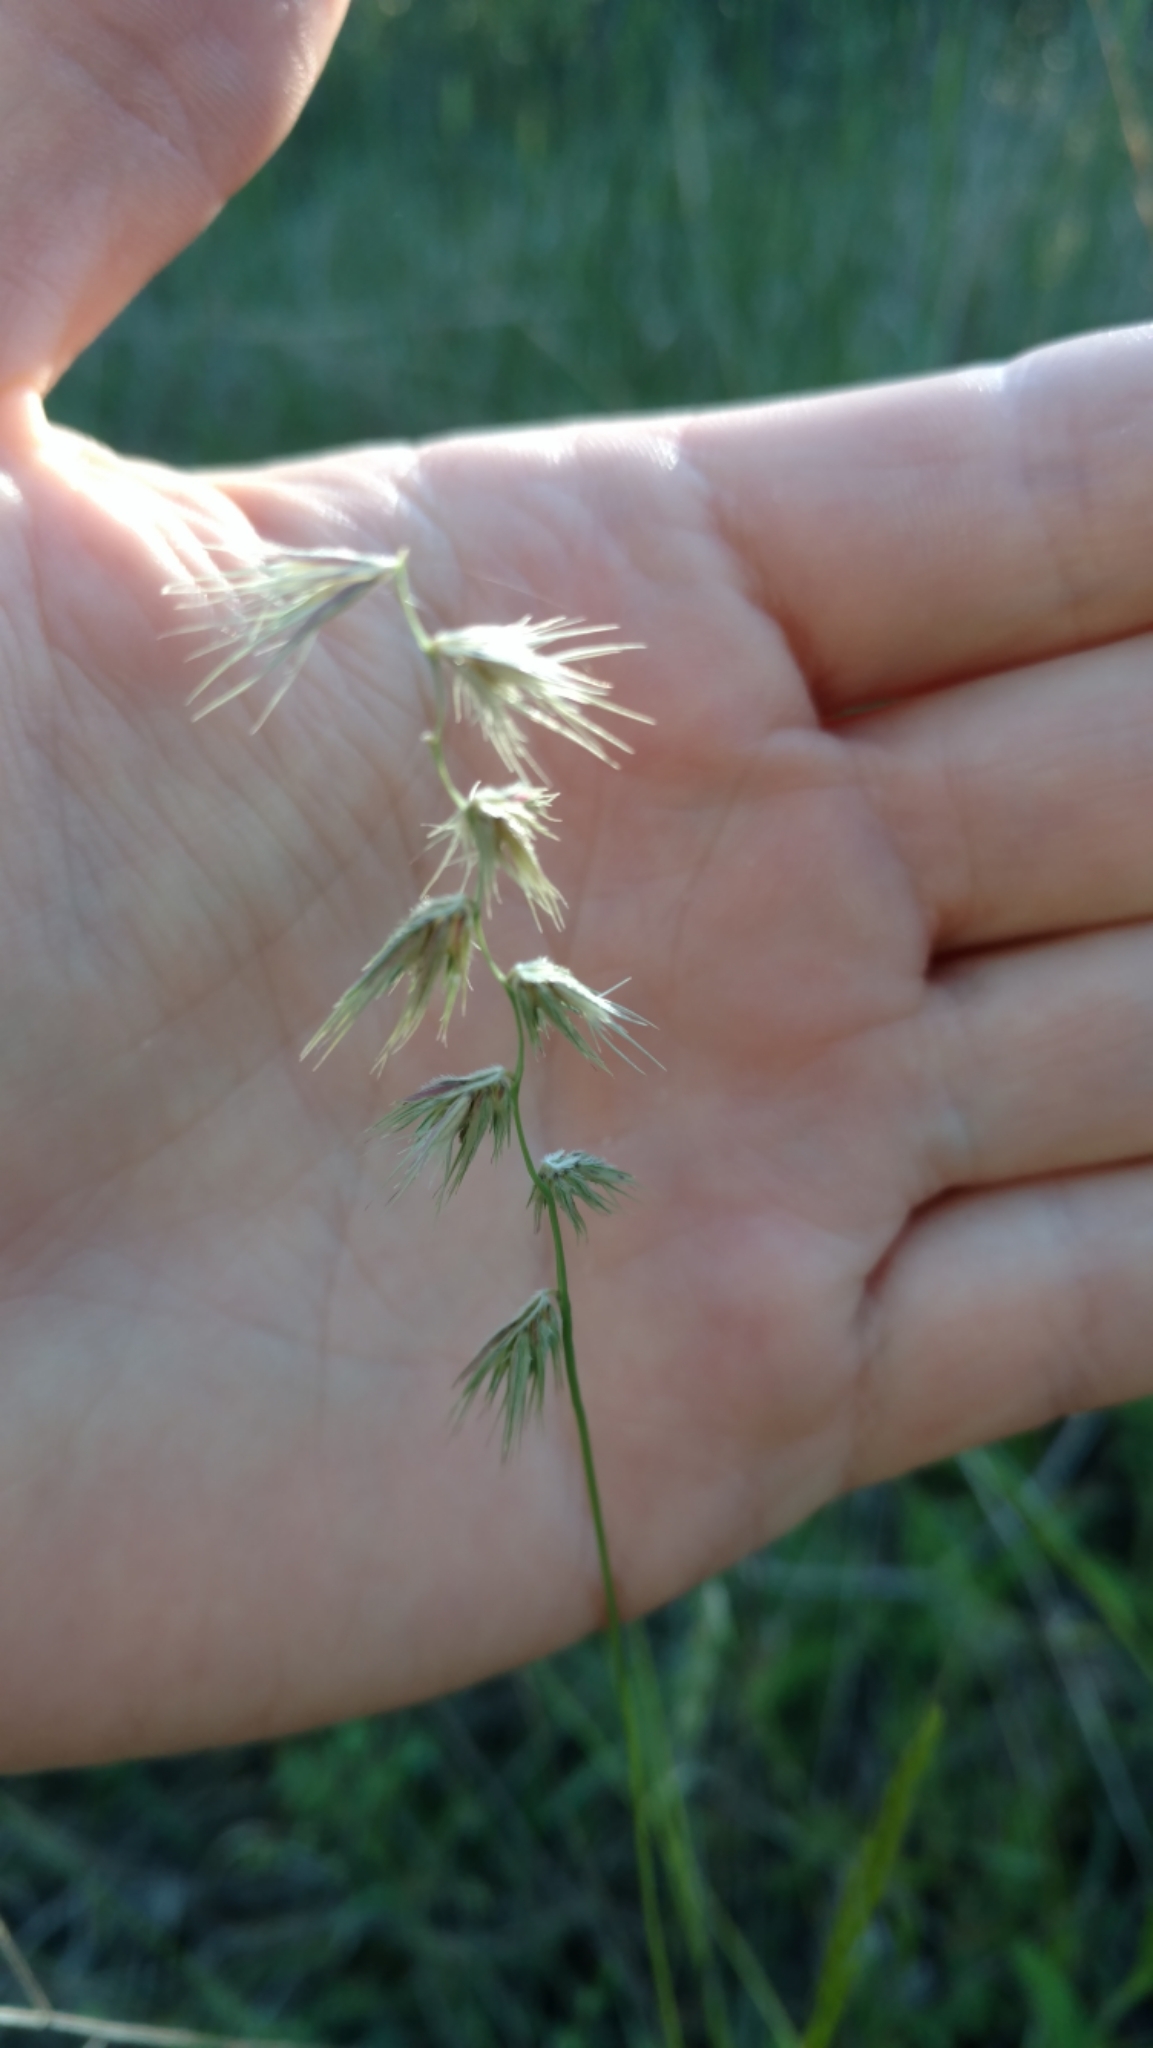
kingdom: Plantae
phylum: Tracheophyta
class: Liliopsida
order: Poales
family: Poaceae
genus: Bouteloua
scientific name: Bouteloua rigidiseta
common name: Texas grama
